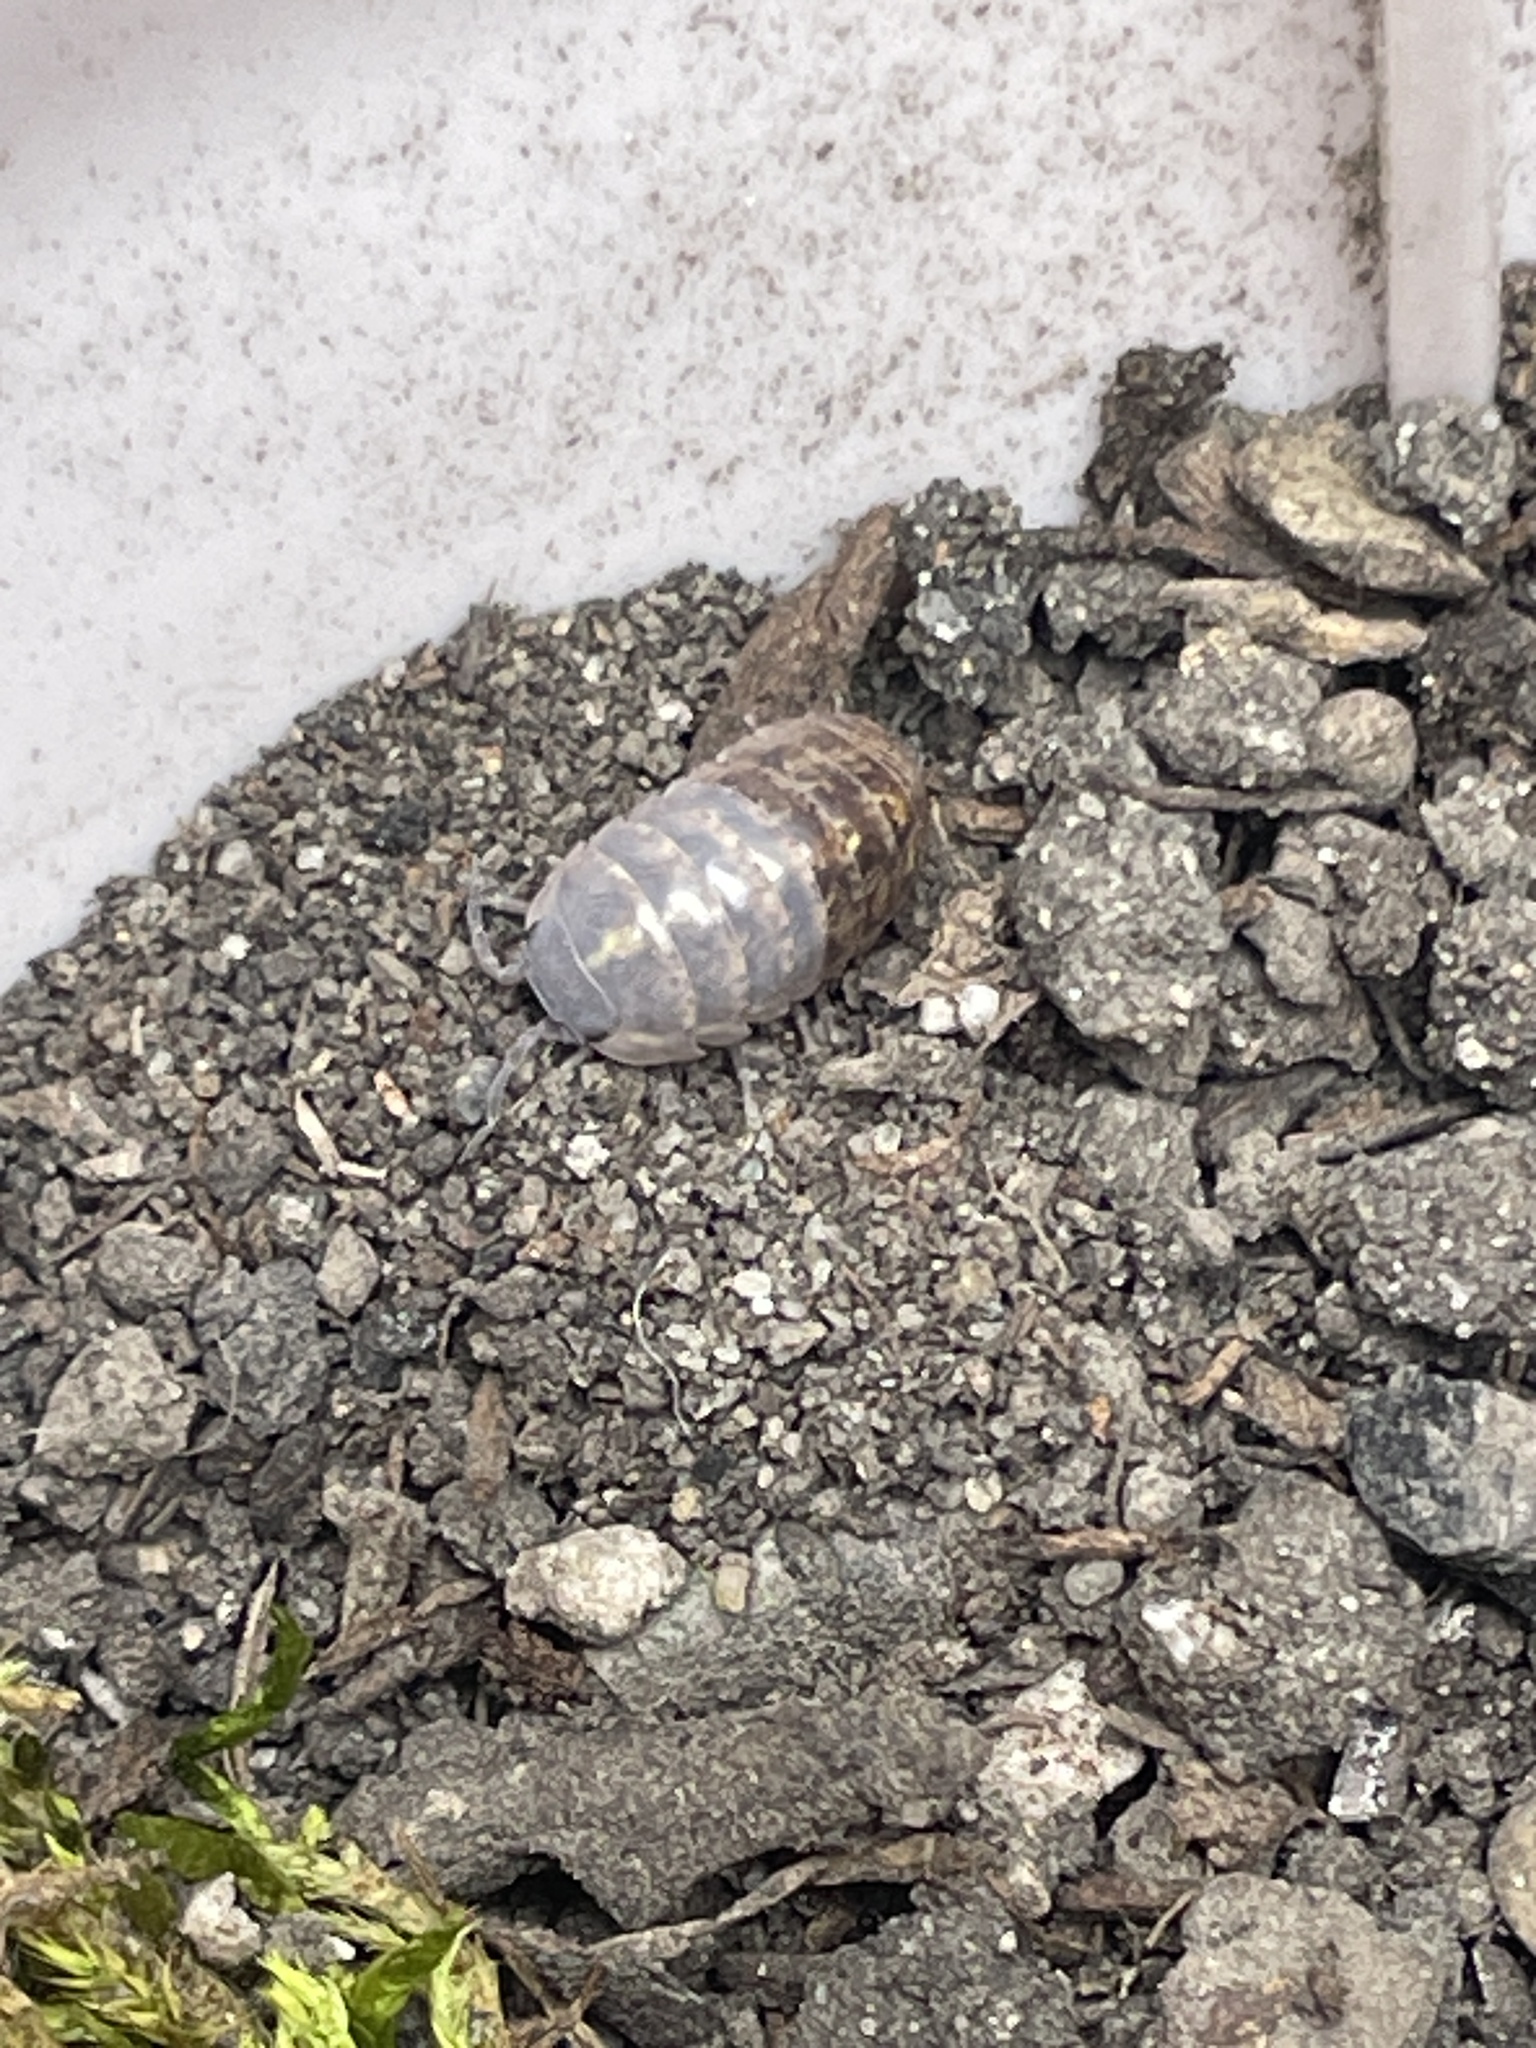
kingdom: Animalia
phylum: Arthropoda
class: Malacostraca
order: Isopoda
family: Armadillidiidae
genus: Armadillidium
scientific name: Armadillidium vulgare
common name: Common pill woodlouse
